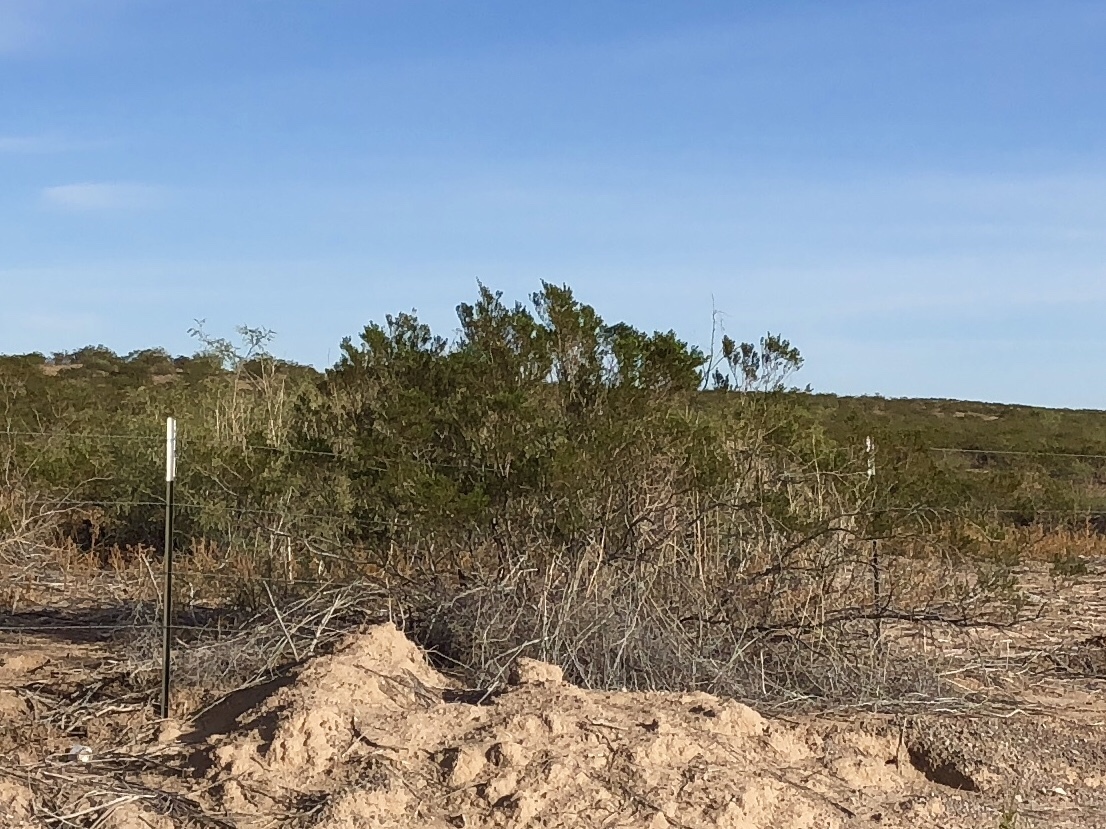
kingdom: Plantae
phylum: Tracheophyta
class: Magnoliopsida
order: Zygophyllales
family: Zygophyllaceae
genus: Larrea
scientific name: Larrea tridentata
